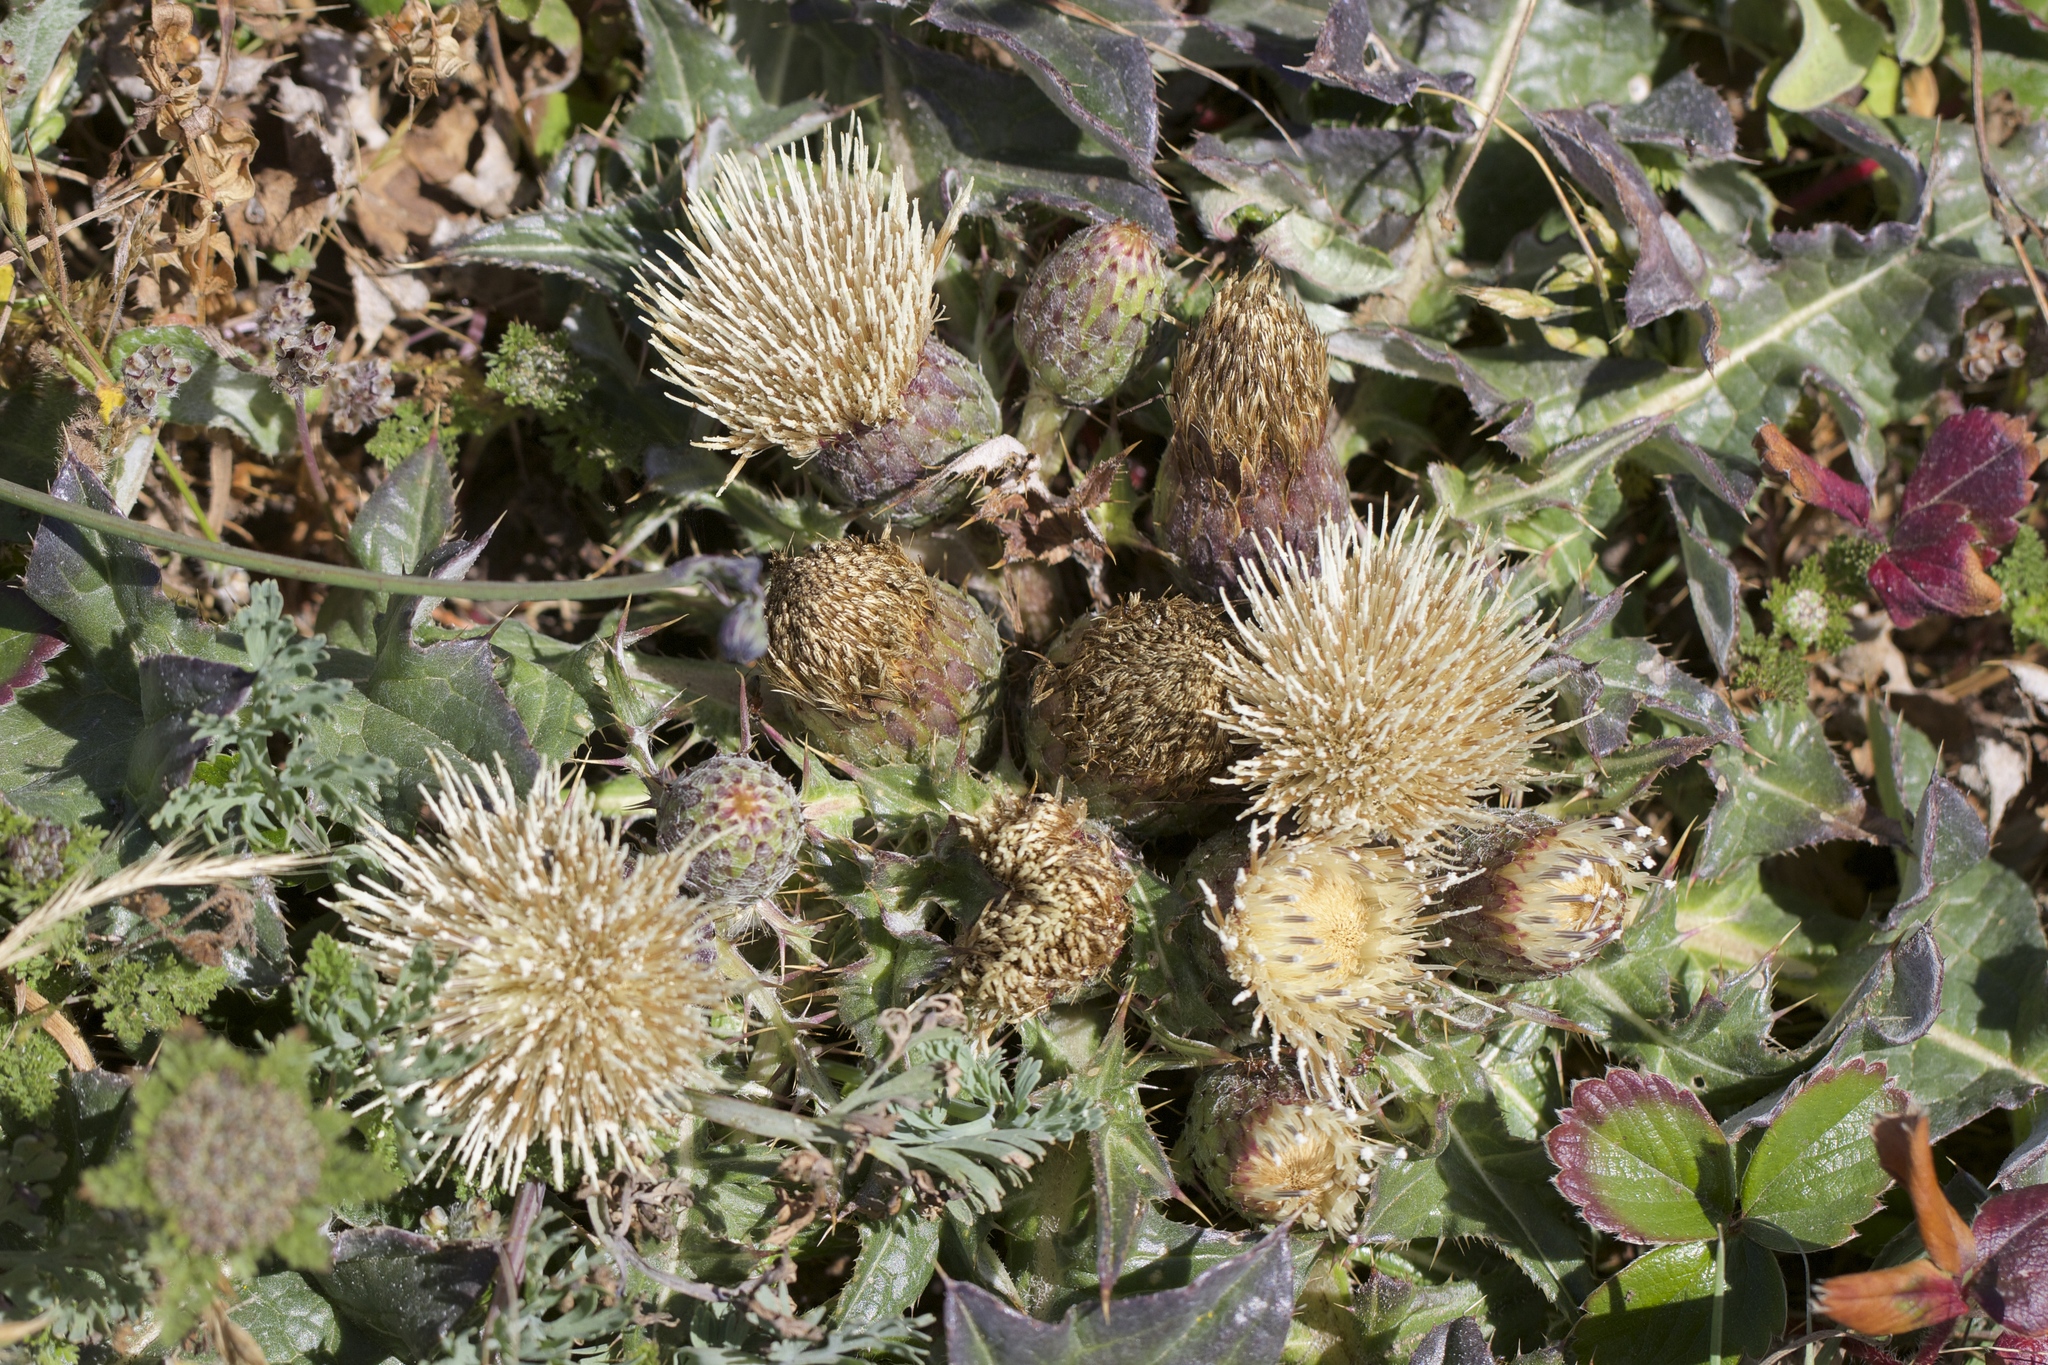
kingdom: Plantae
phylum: Tracheophyta
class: Magnoliopsida
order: Asterales
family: Asteraceae
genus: Cirsium
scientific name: Cirsium quercetorum
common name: Alameda county thistle
